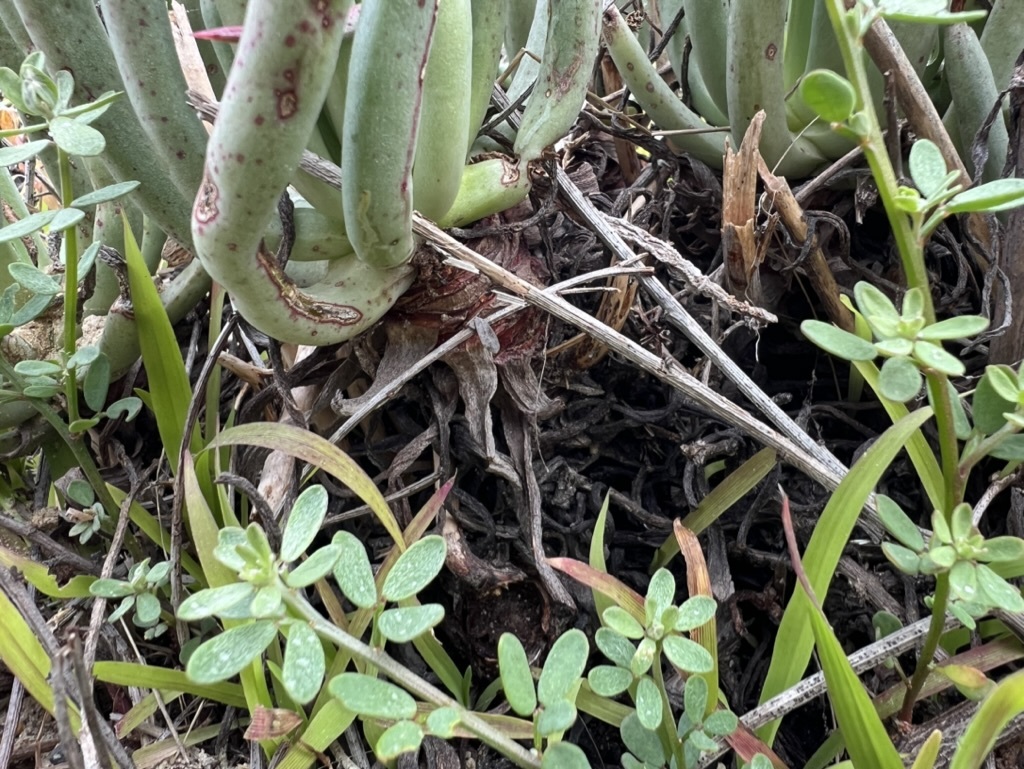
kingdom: Plantae
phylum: Tracheophyta
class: Magnoliopsida
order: Saxifragales
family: Crassulaceae
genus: Dudleya
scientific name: Dudleya edulis
